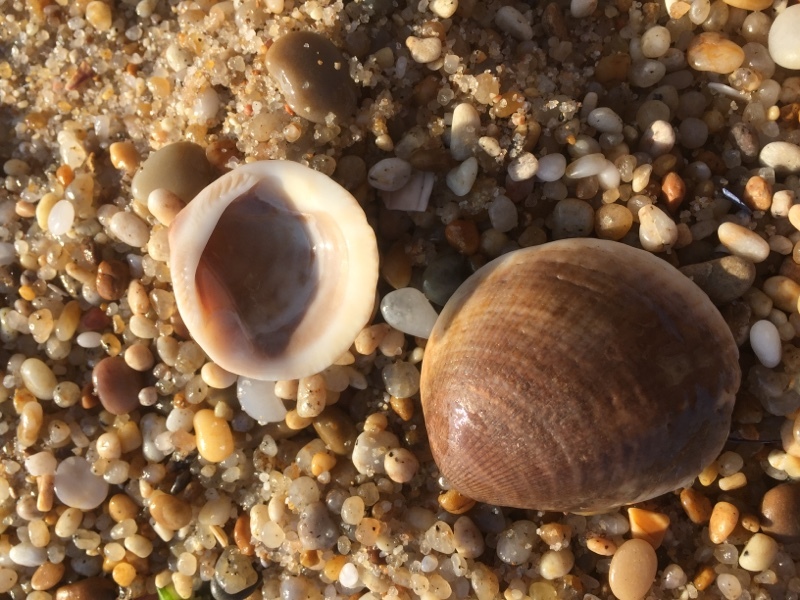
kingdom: Animalia
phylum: Mollusca
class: Bivalvia
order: Arcida
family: Glycymerididae
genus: Glycymeris
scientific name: Glycymeris glycymeris
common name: Dog-cockle
